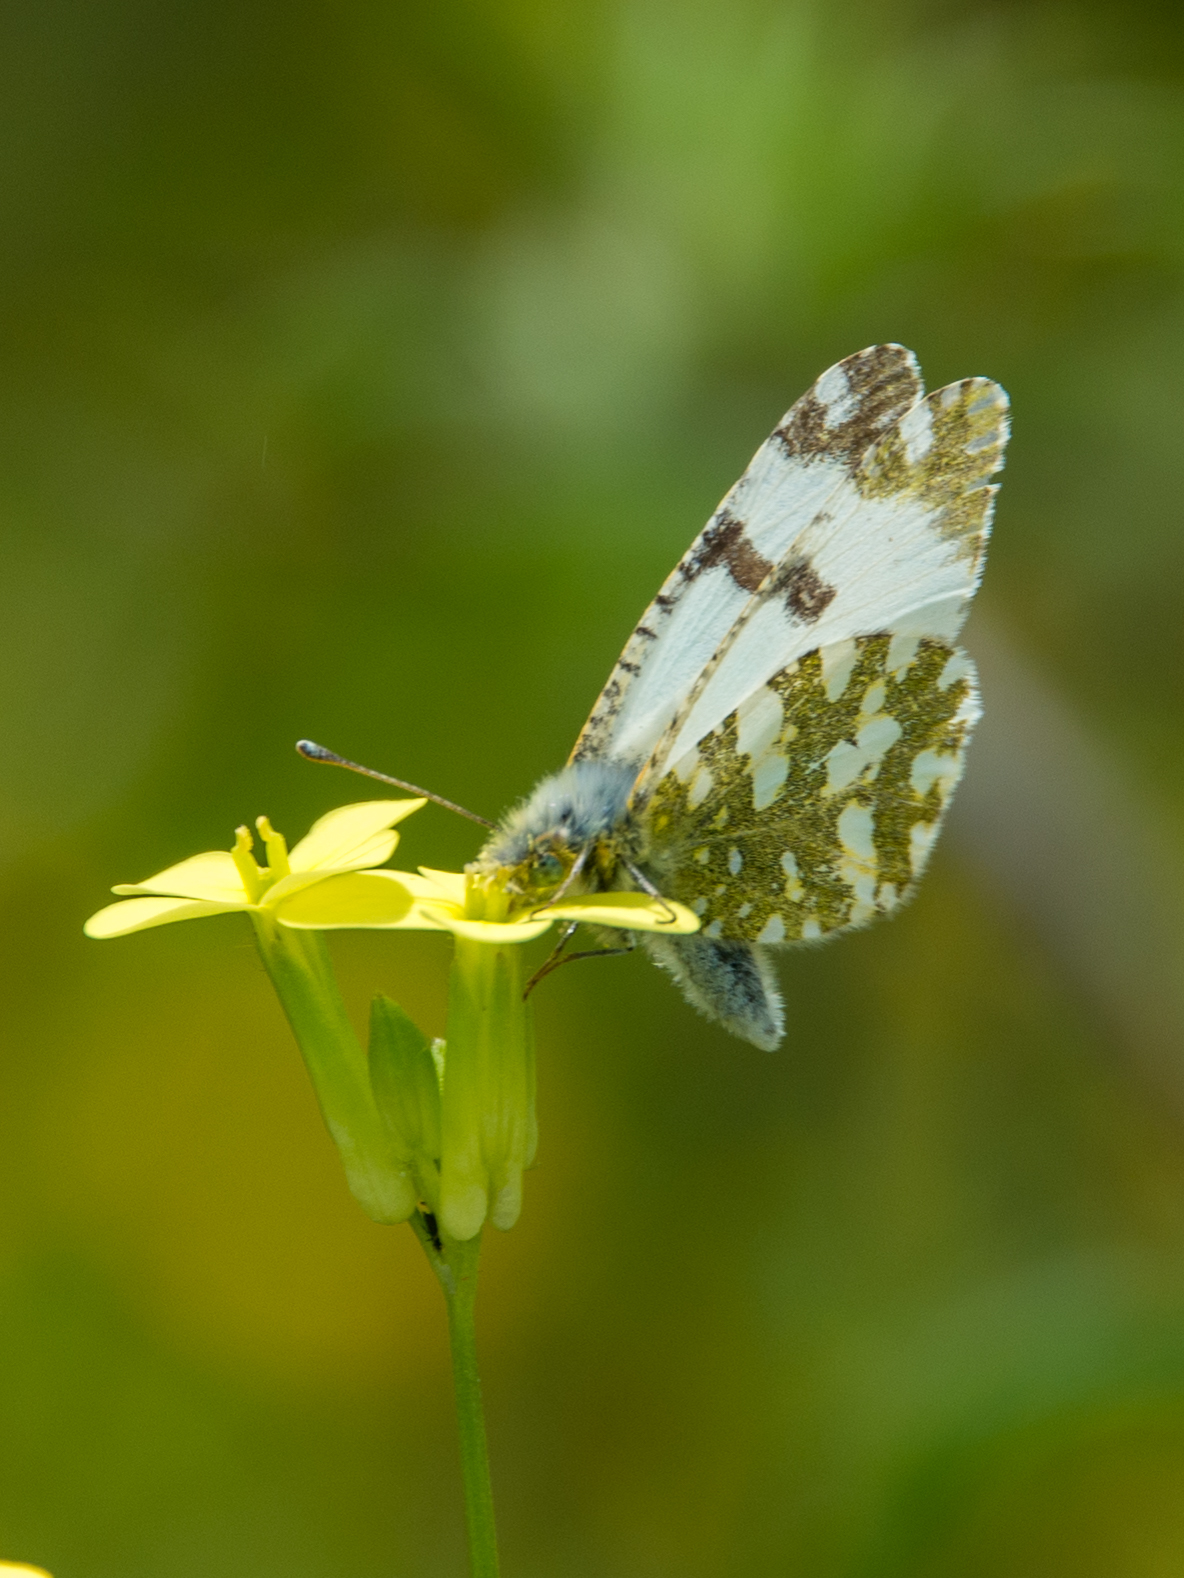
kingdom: Animalia
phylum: Arthropoda
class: Insecta
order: Lepidoptera
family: Pieridae
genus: Euchloe
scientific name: Euchloe crameri
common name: Western dappled white
